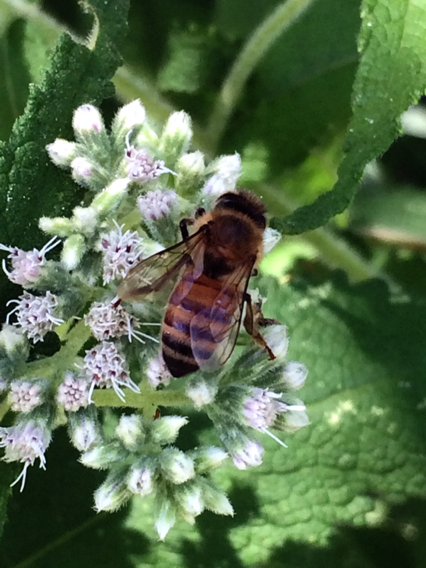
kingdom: Animalia
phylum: Arthropoda
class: Insecta
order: Hymenoptera
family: Apidae
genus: Apis
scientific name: Apis mellifera
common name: Honey bee
